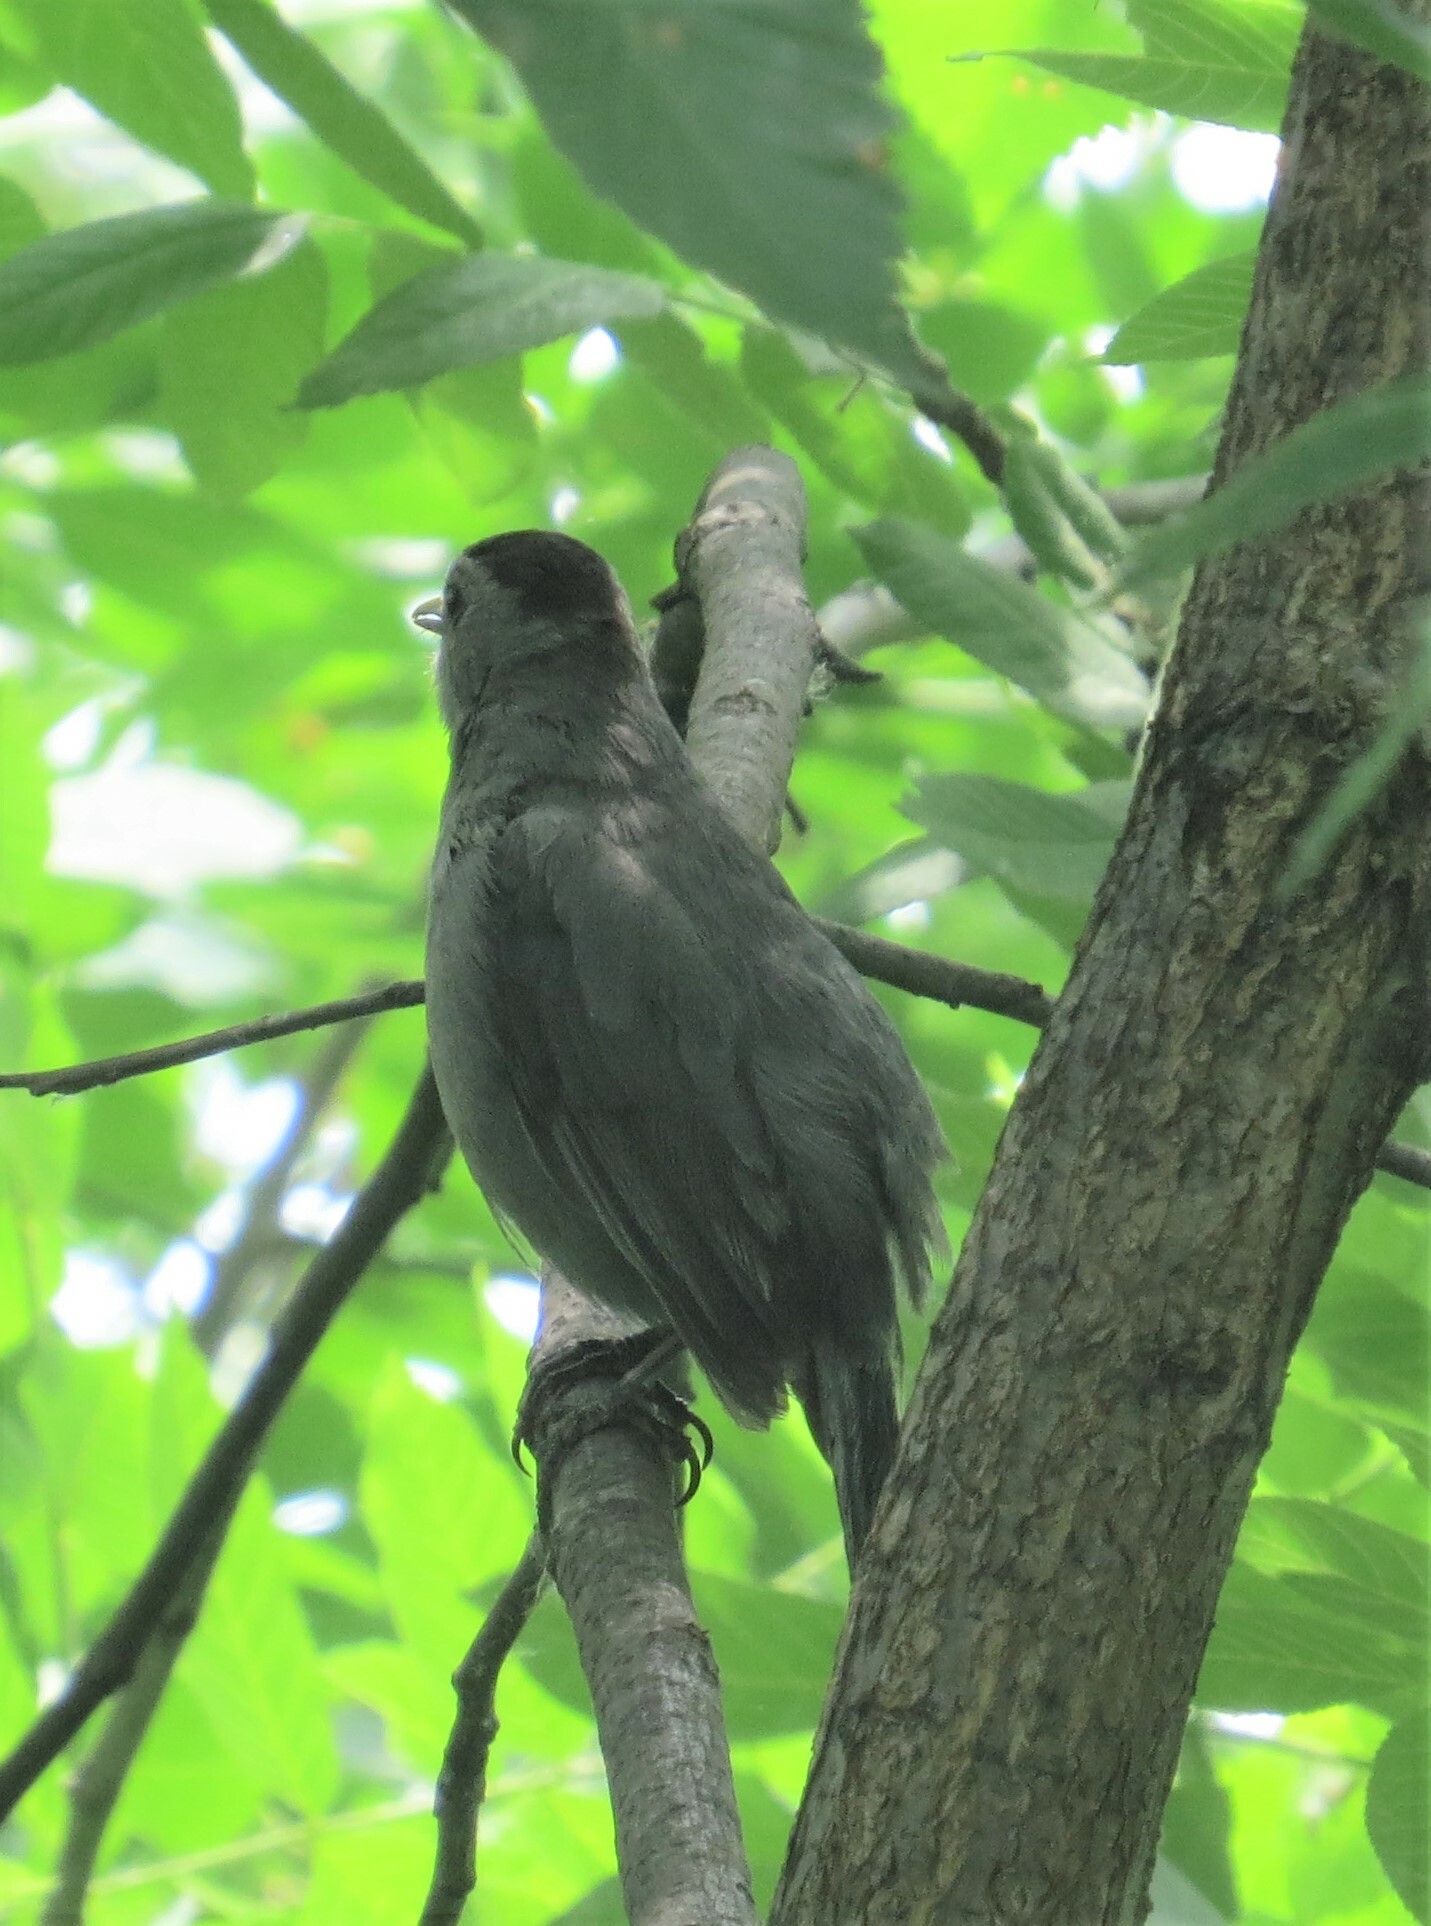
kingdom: Animalia
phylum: Chordata
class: Aves
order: Passeriformes
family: Mimidae
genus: Dumetella
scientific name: Dumetella carolinensis
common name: Gray catbird
